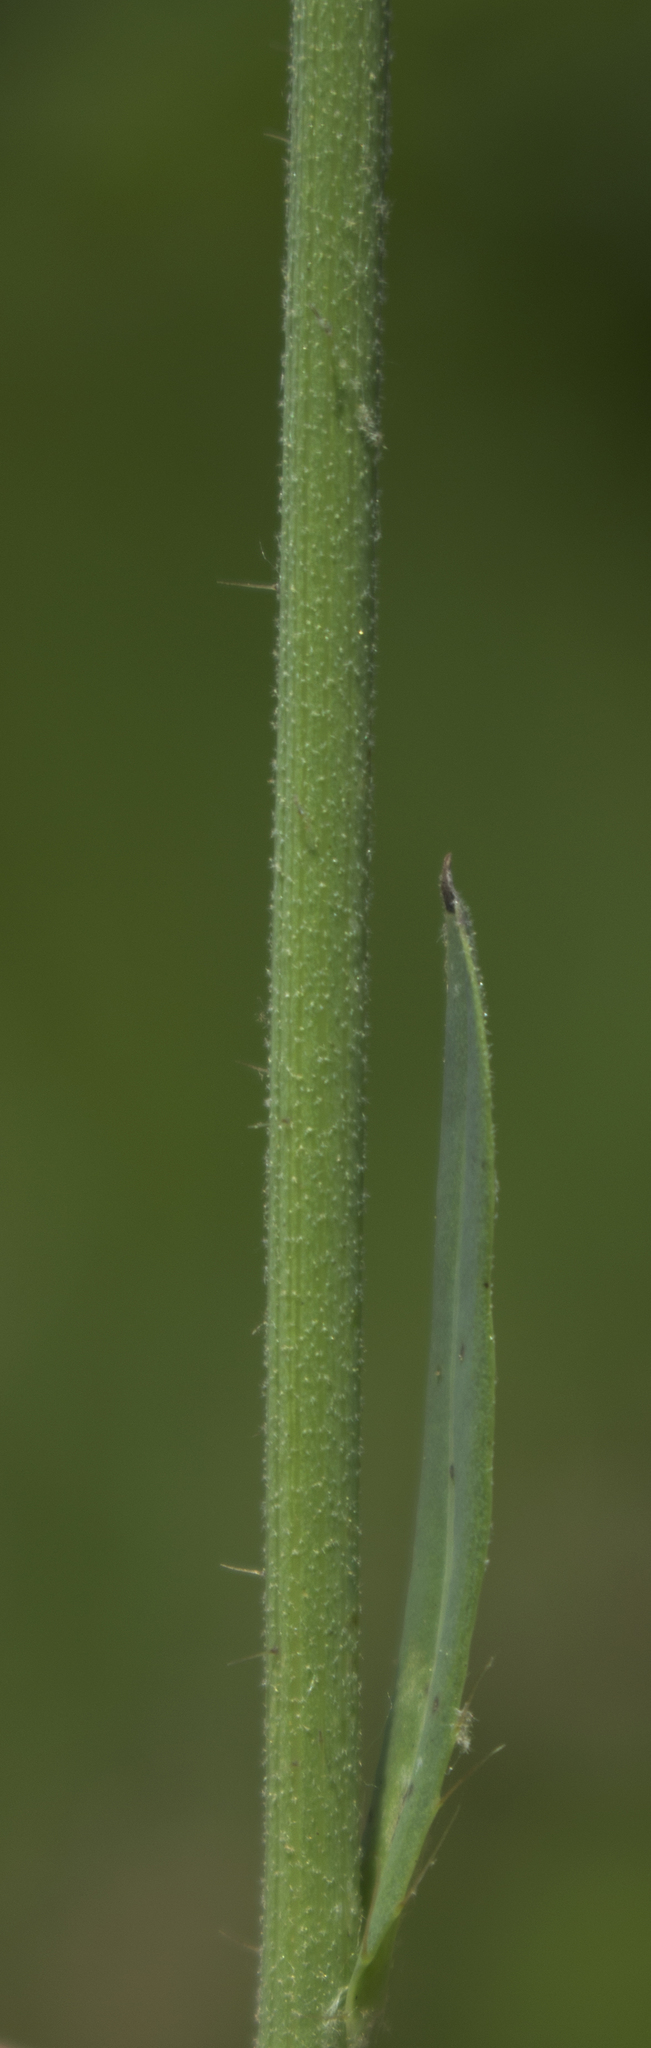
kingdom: Plantae
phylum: Tracheophyta
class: Magnoliopsida
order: Asterales
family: Asteraceae
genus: Pilosella
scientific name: Pilosella piloselloides
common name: Glaucous king-devil
